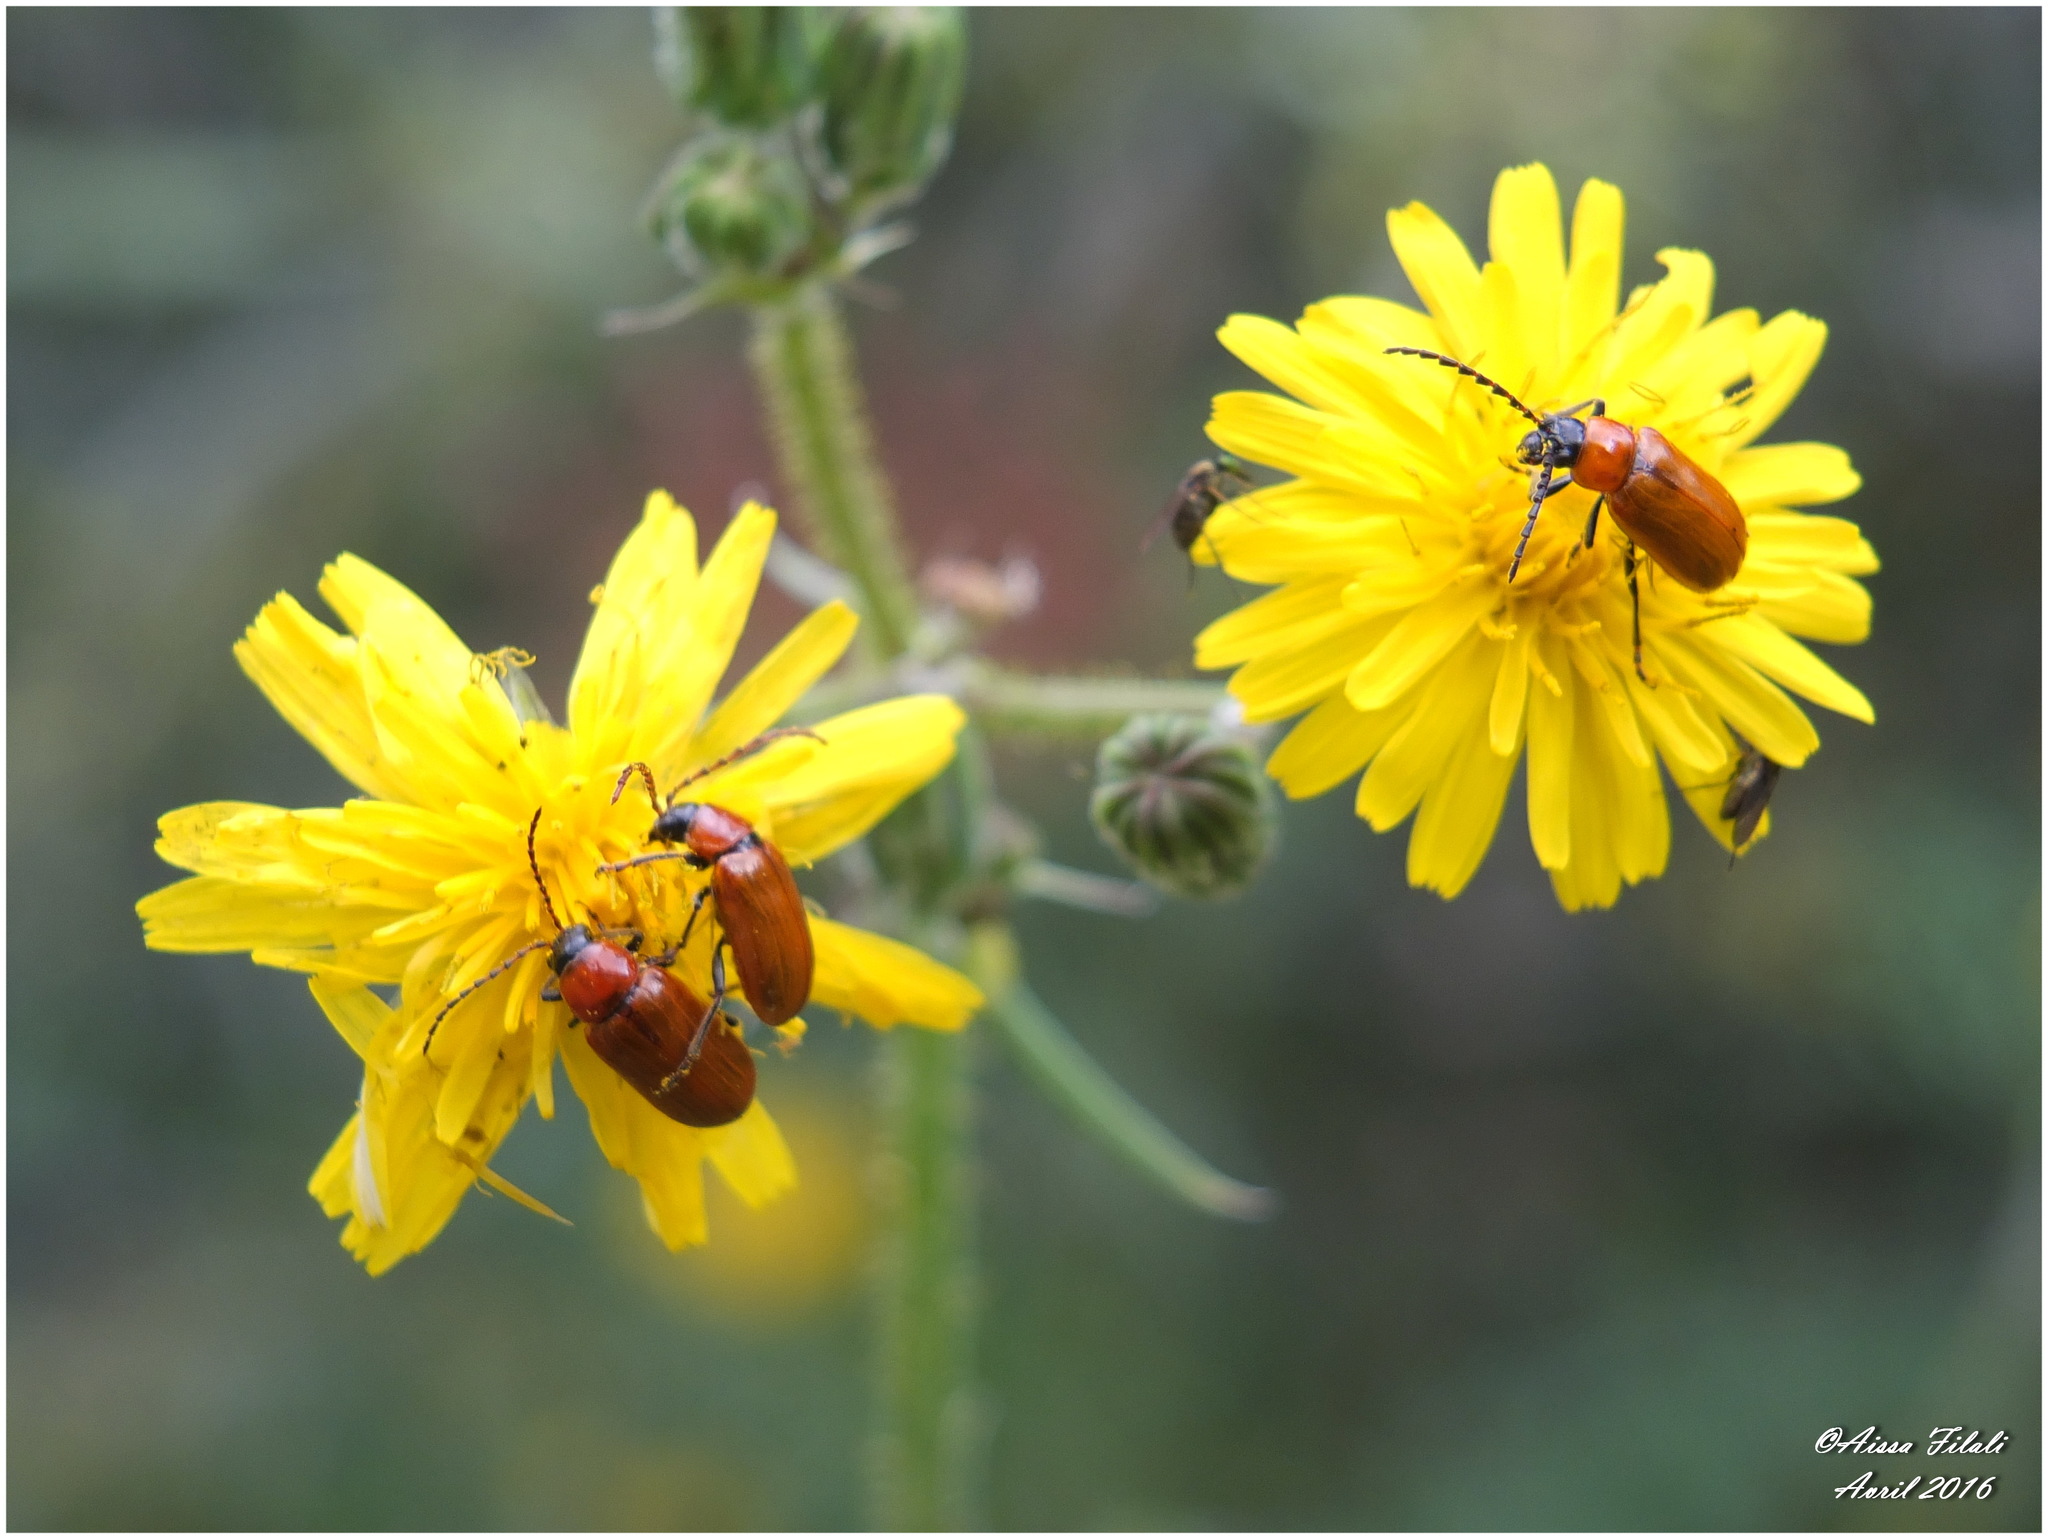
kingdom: Animalia
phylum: Arthropoda
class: Insecta
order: Coleoptera
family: Chrysomelidae
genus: Exosoma
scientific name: Exosoma lusitanicum
